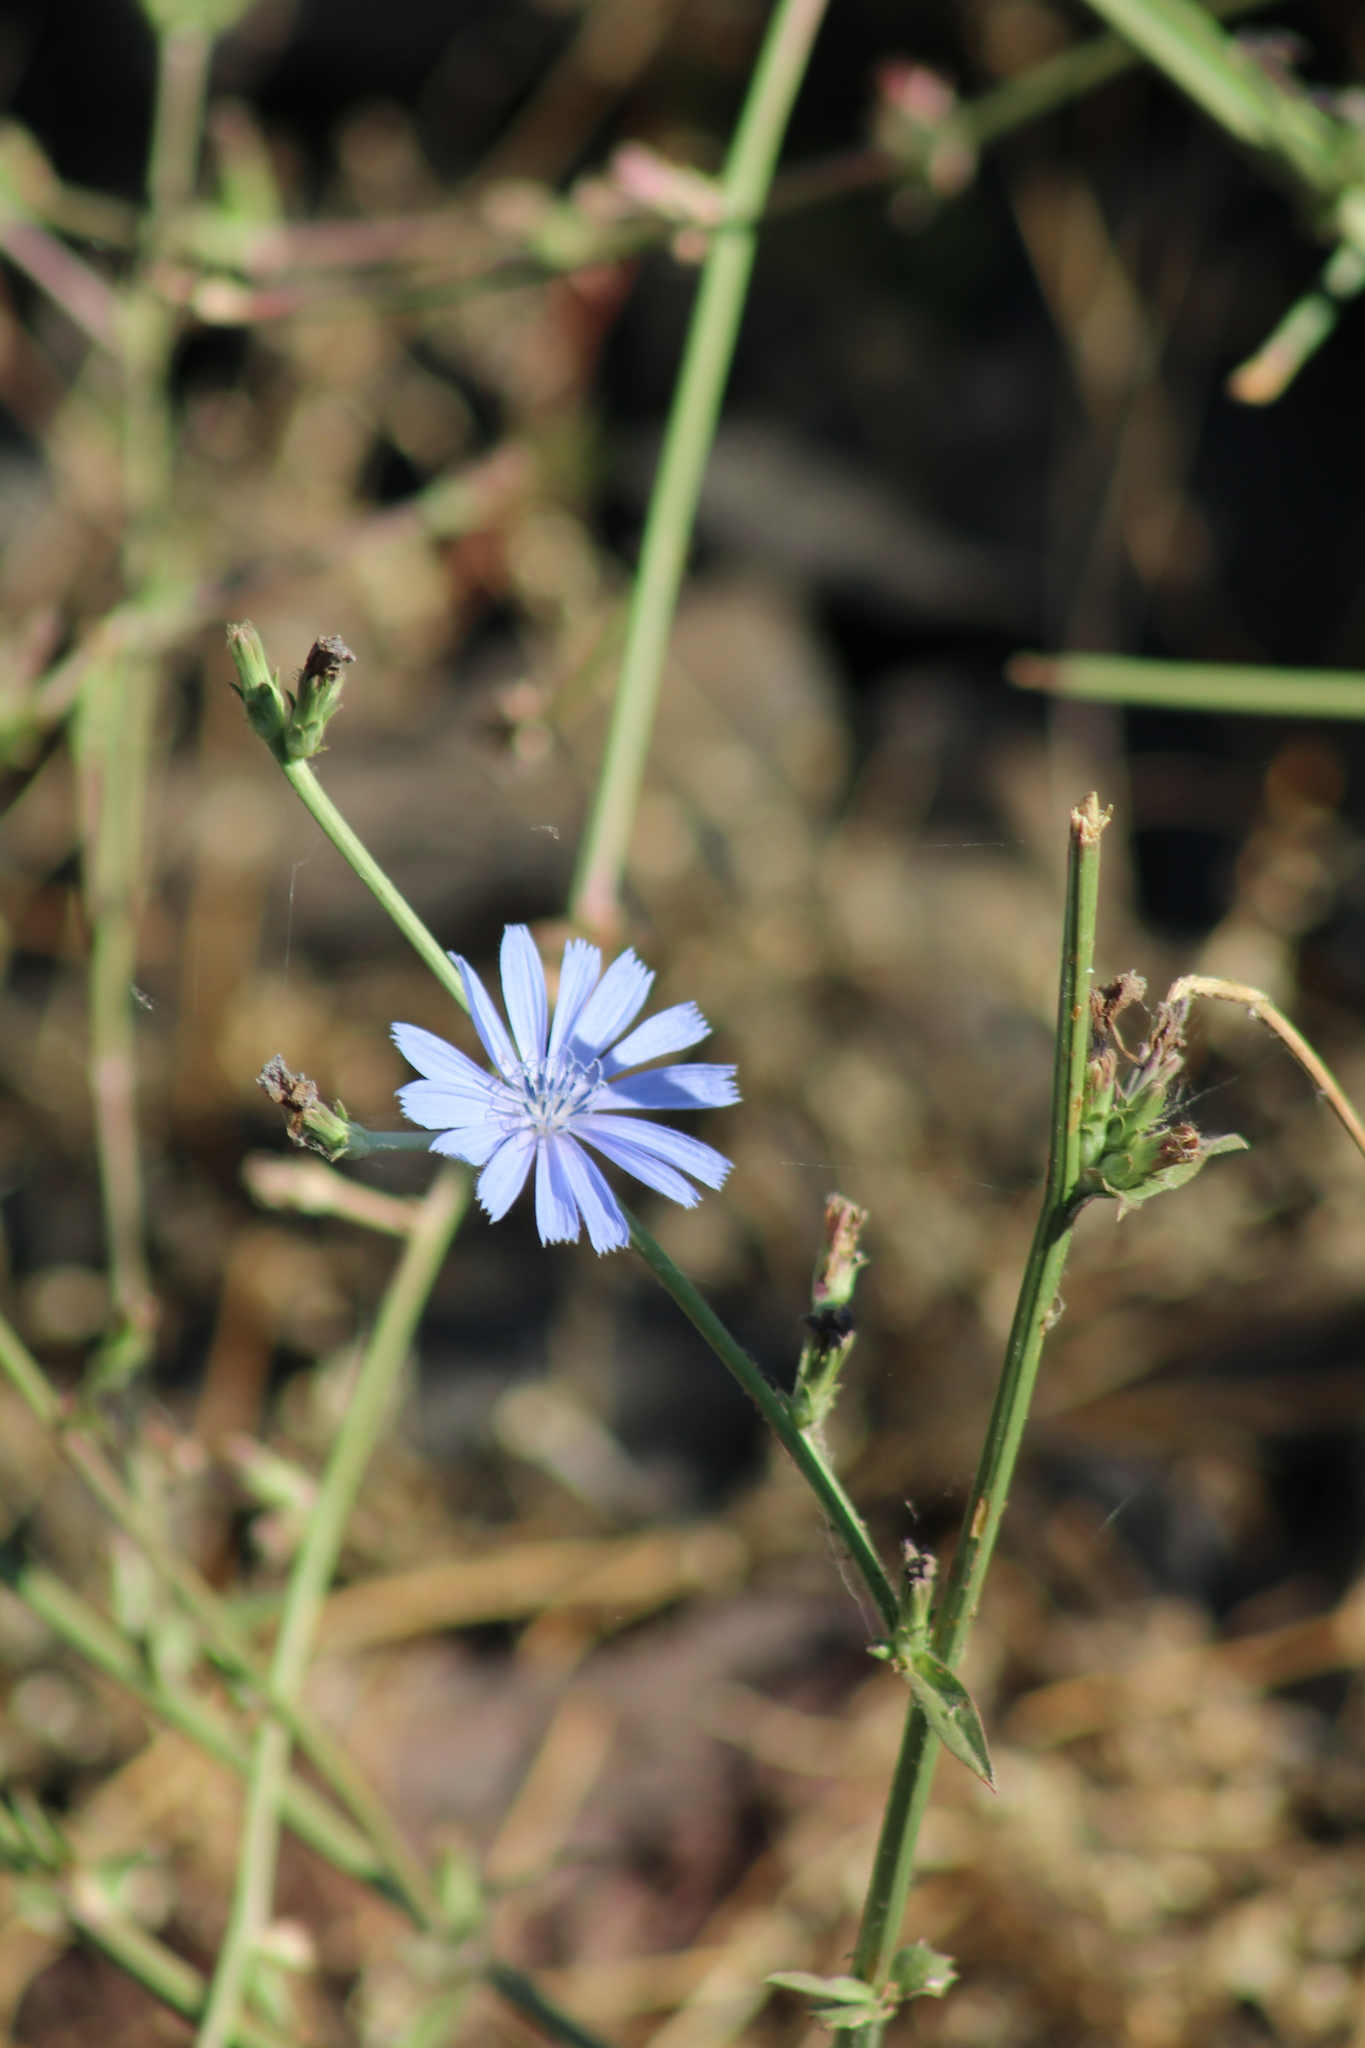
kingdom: Plantae
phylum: Tracheophyta
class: Magnoliopsida
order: Asterales
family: Asteraceae
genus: Cichorium
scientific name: Cichorium intybus
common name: Chicory
